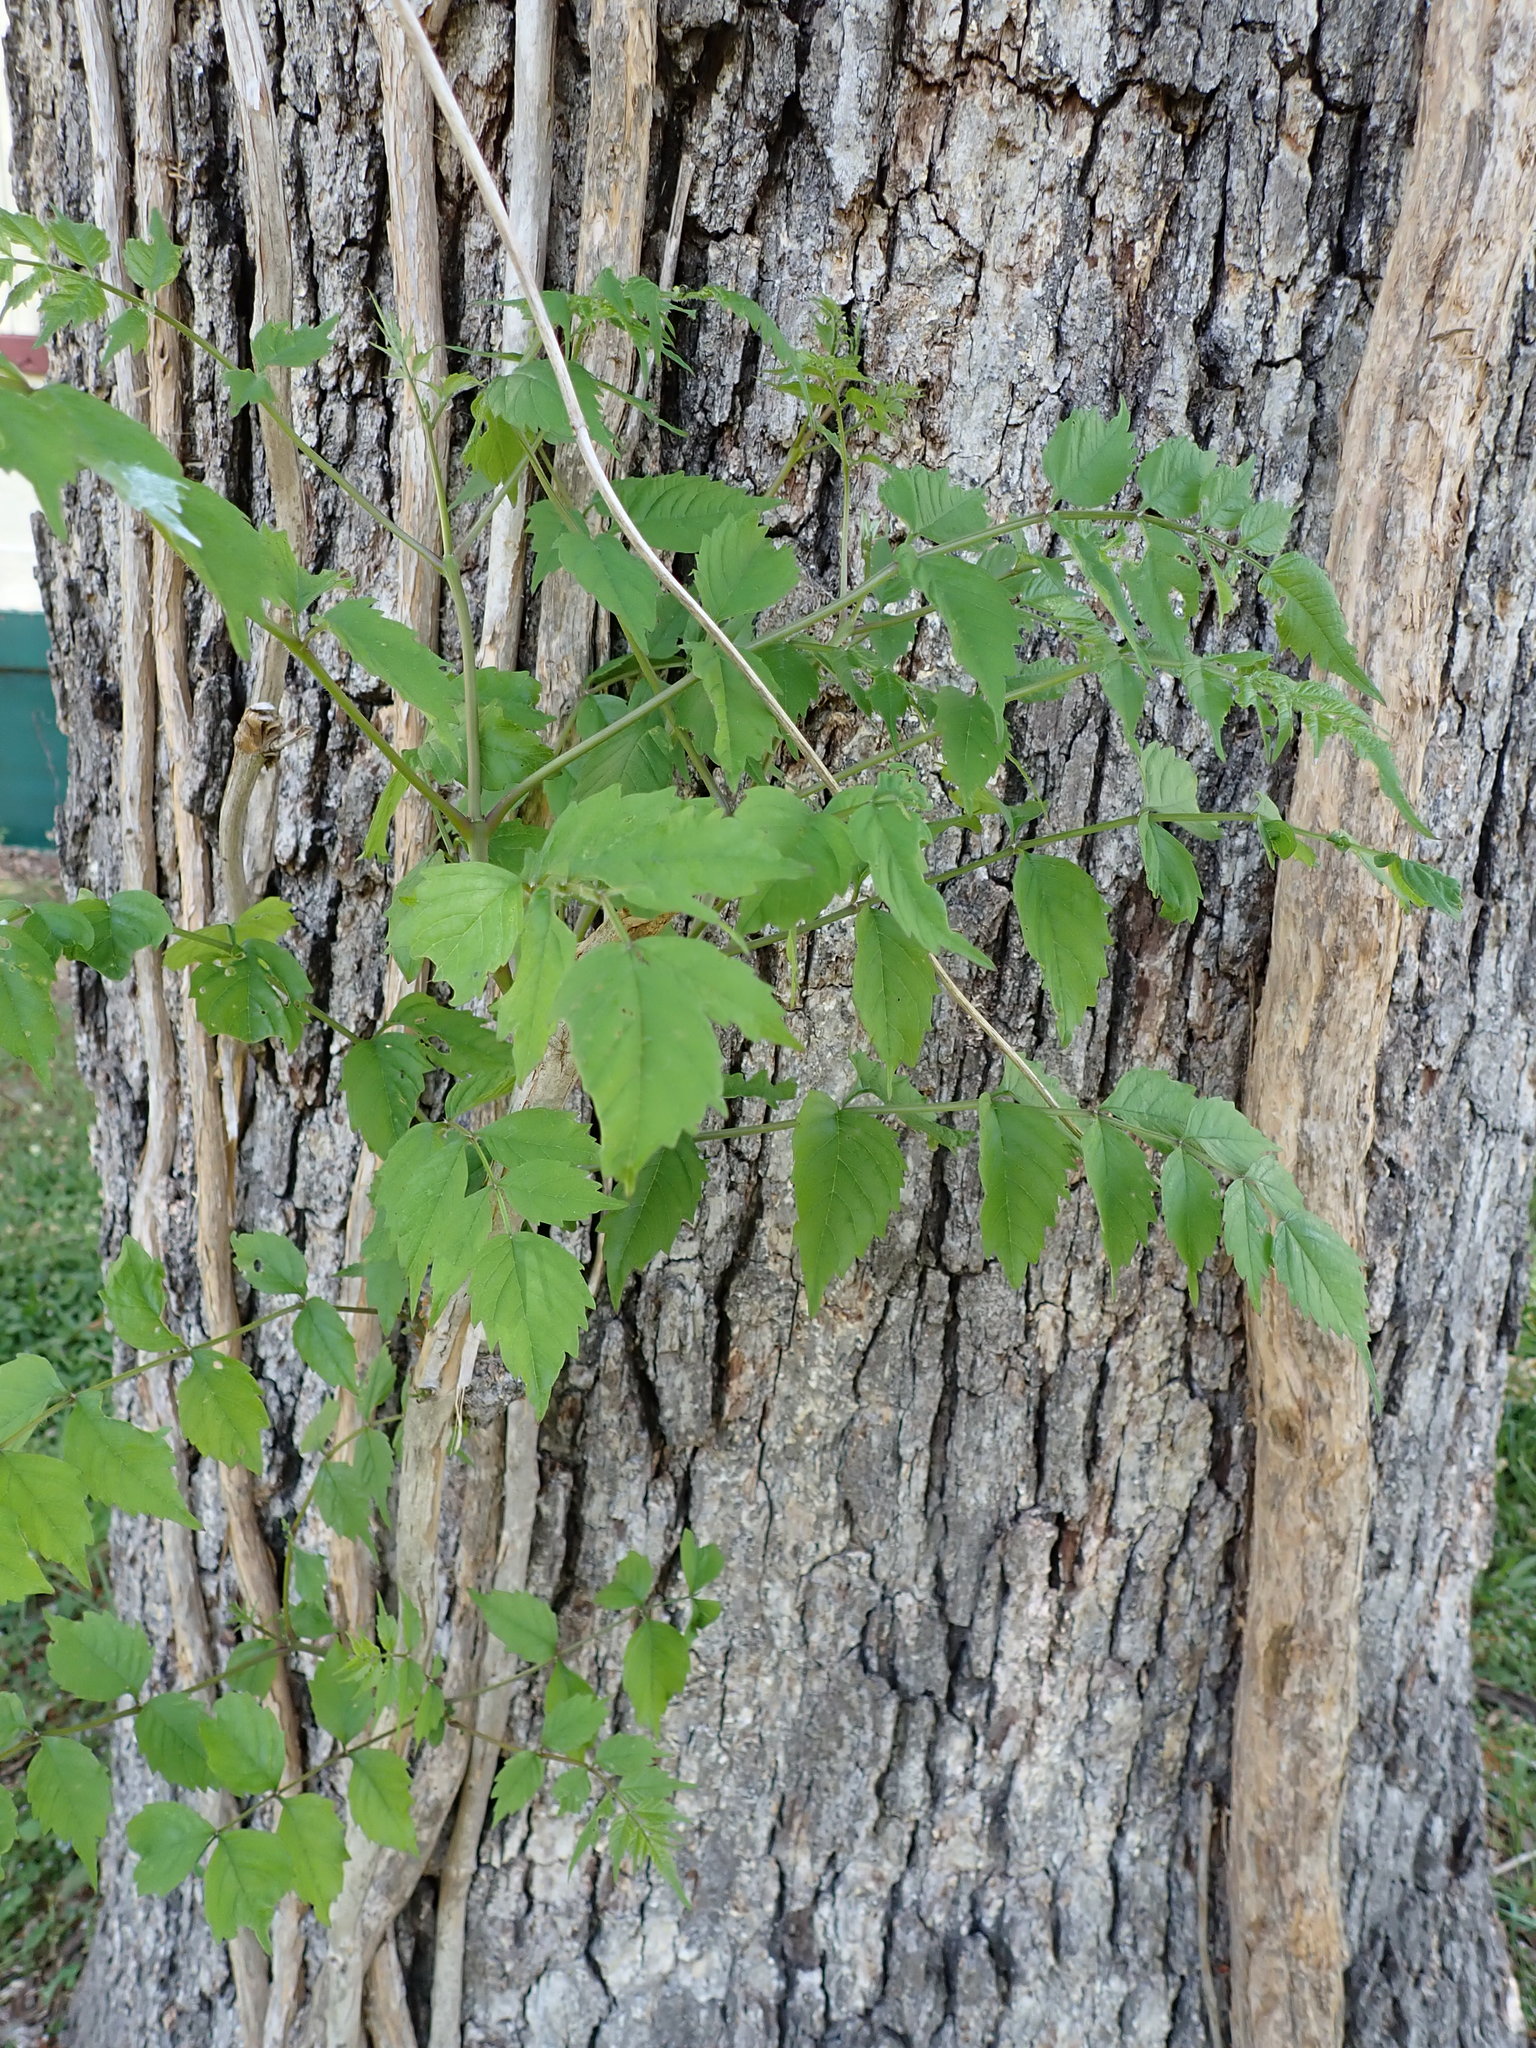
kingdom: Plantae
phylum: Tracheophyta
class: Magnoliopsida
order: Lamiales
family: Bignoniaceae
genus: Campsis
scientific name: Campsis radicans
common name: Trumpet-creeper
